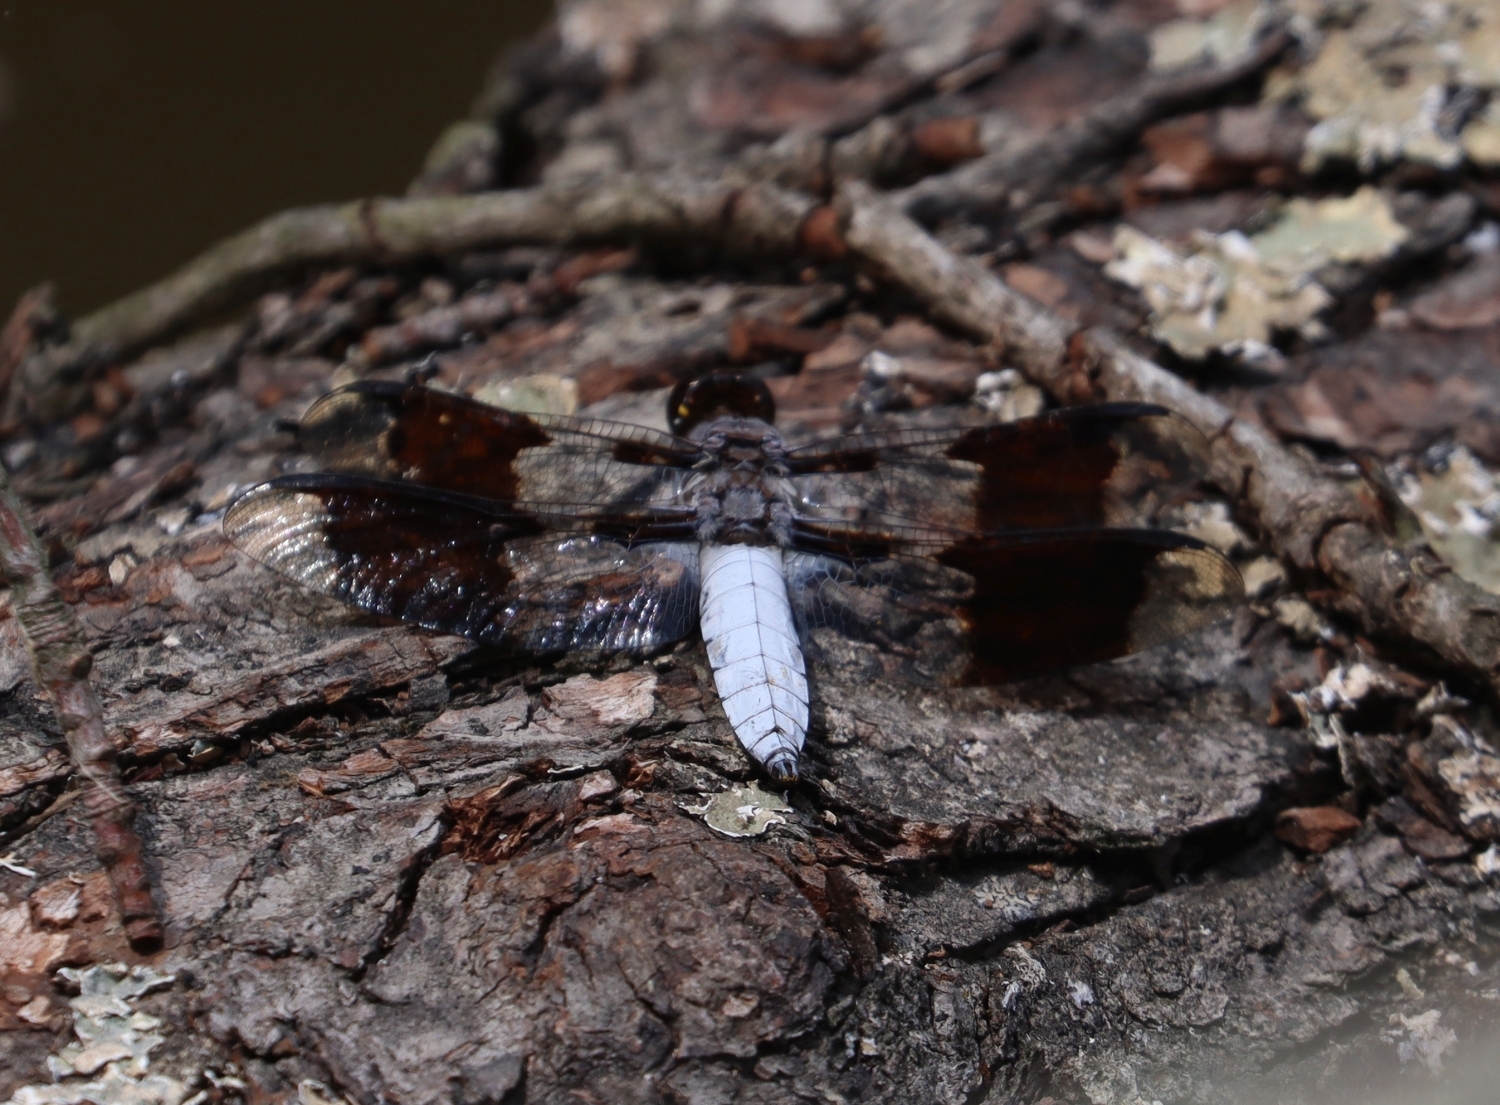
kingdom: Animalia
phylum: Arthropoda
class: Insecta
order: Odonata
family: Libellulidae
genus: Plathemis
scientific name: Plathemis lydia
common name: Common whitetail
